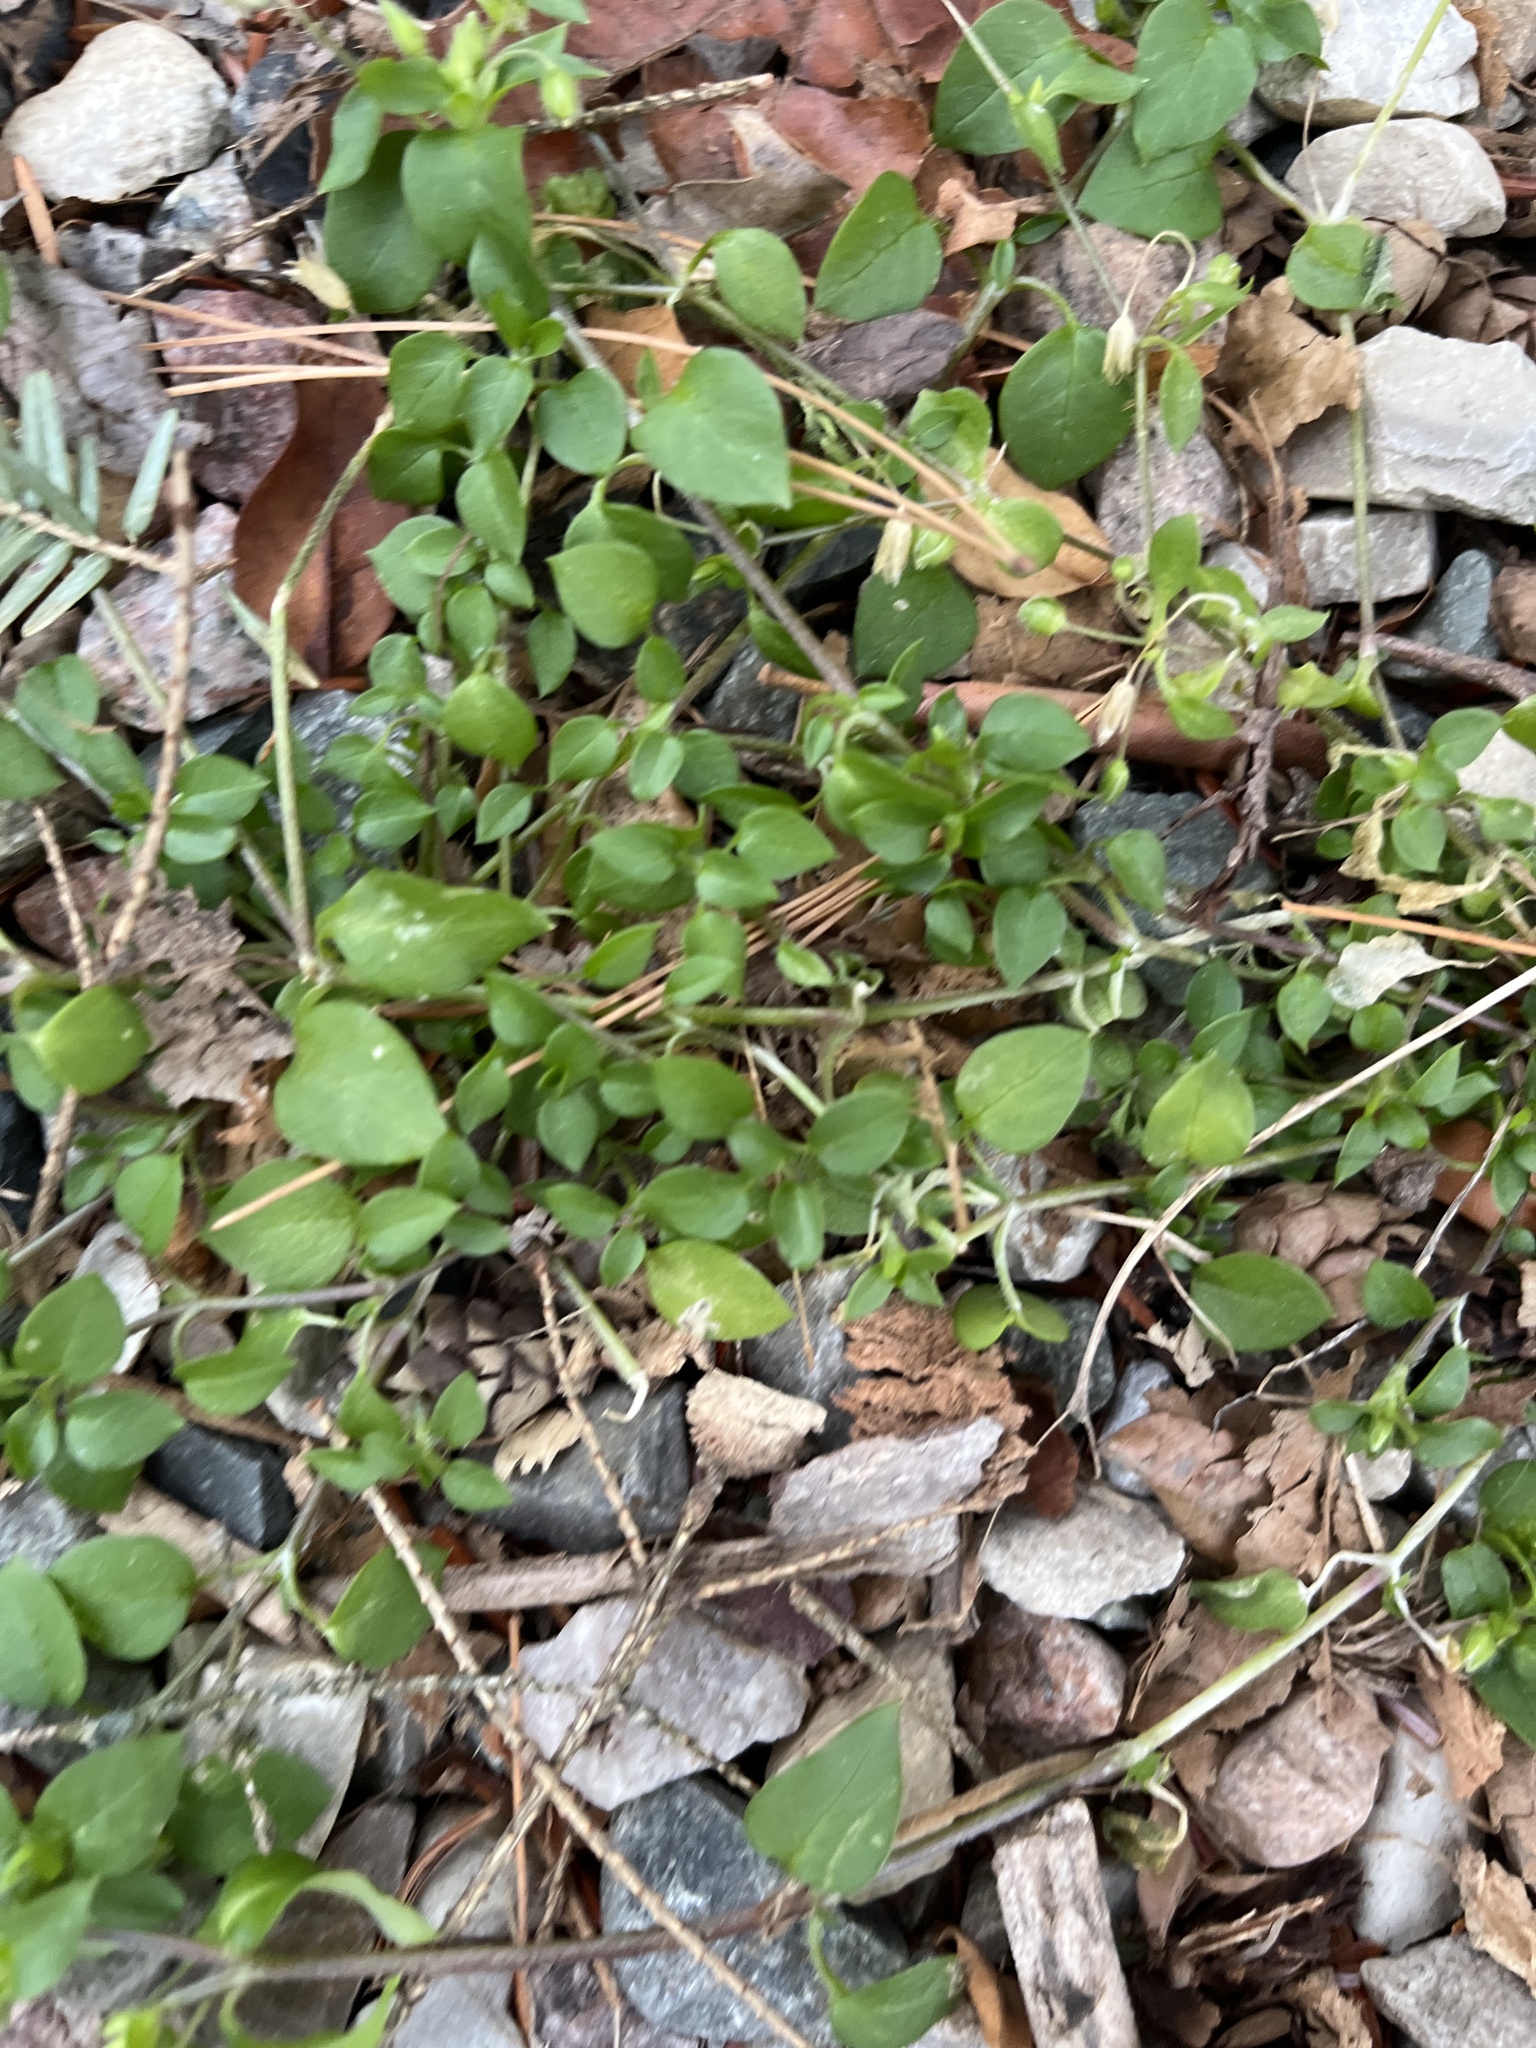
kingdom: Plantae
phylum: Tracheophyta
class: Magnoliopsida
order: Caryophyllales
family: Caryophyllaceae
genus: Stellaria
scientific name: Stellaria media
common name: Common chickweed
